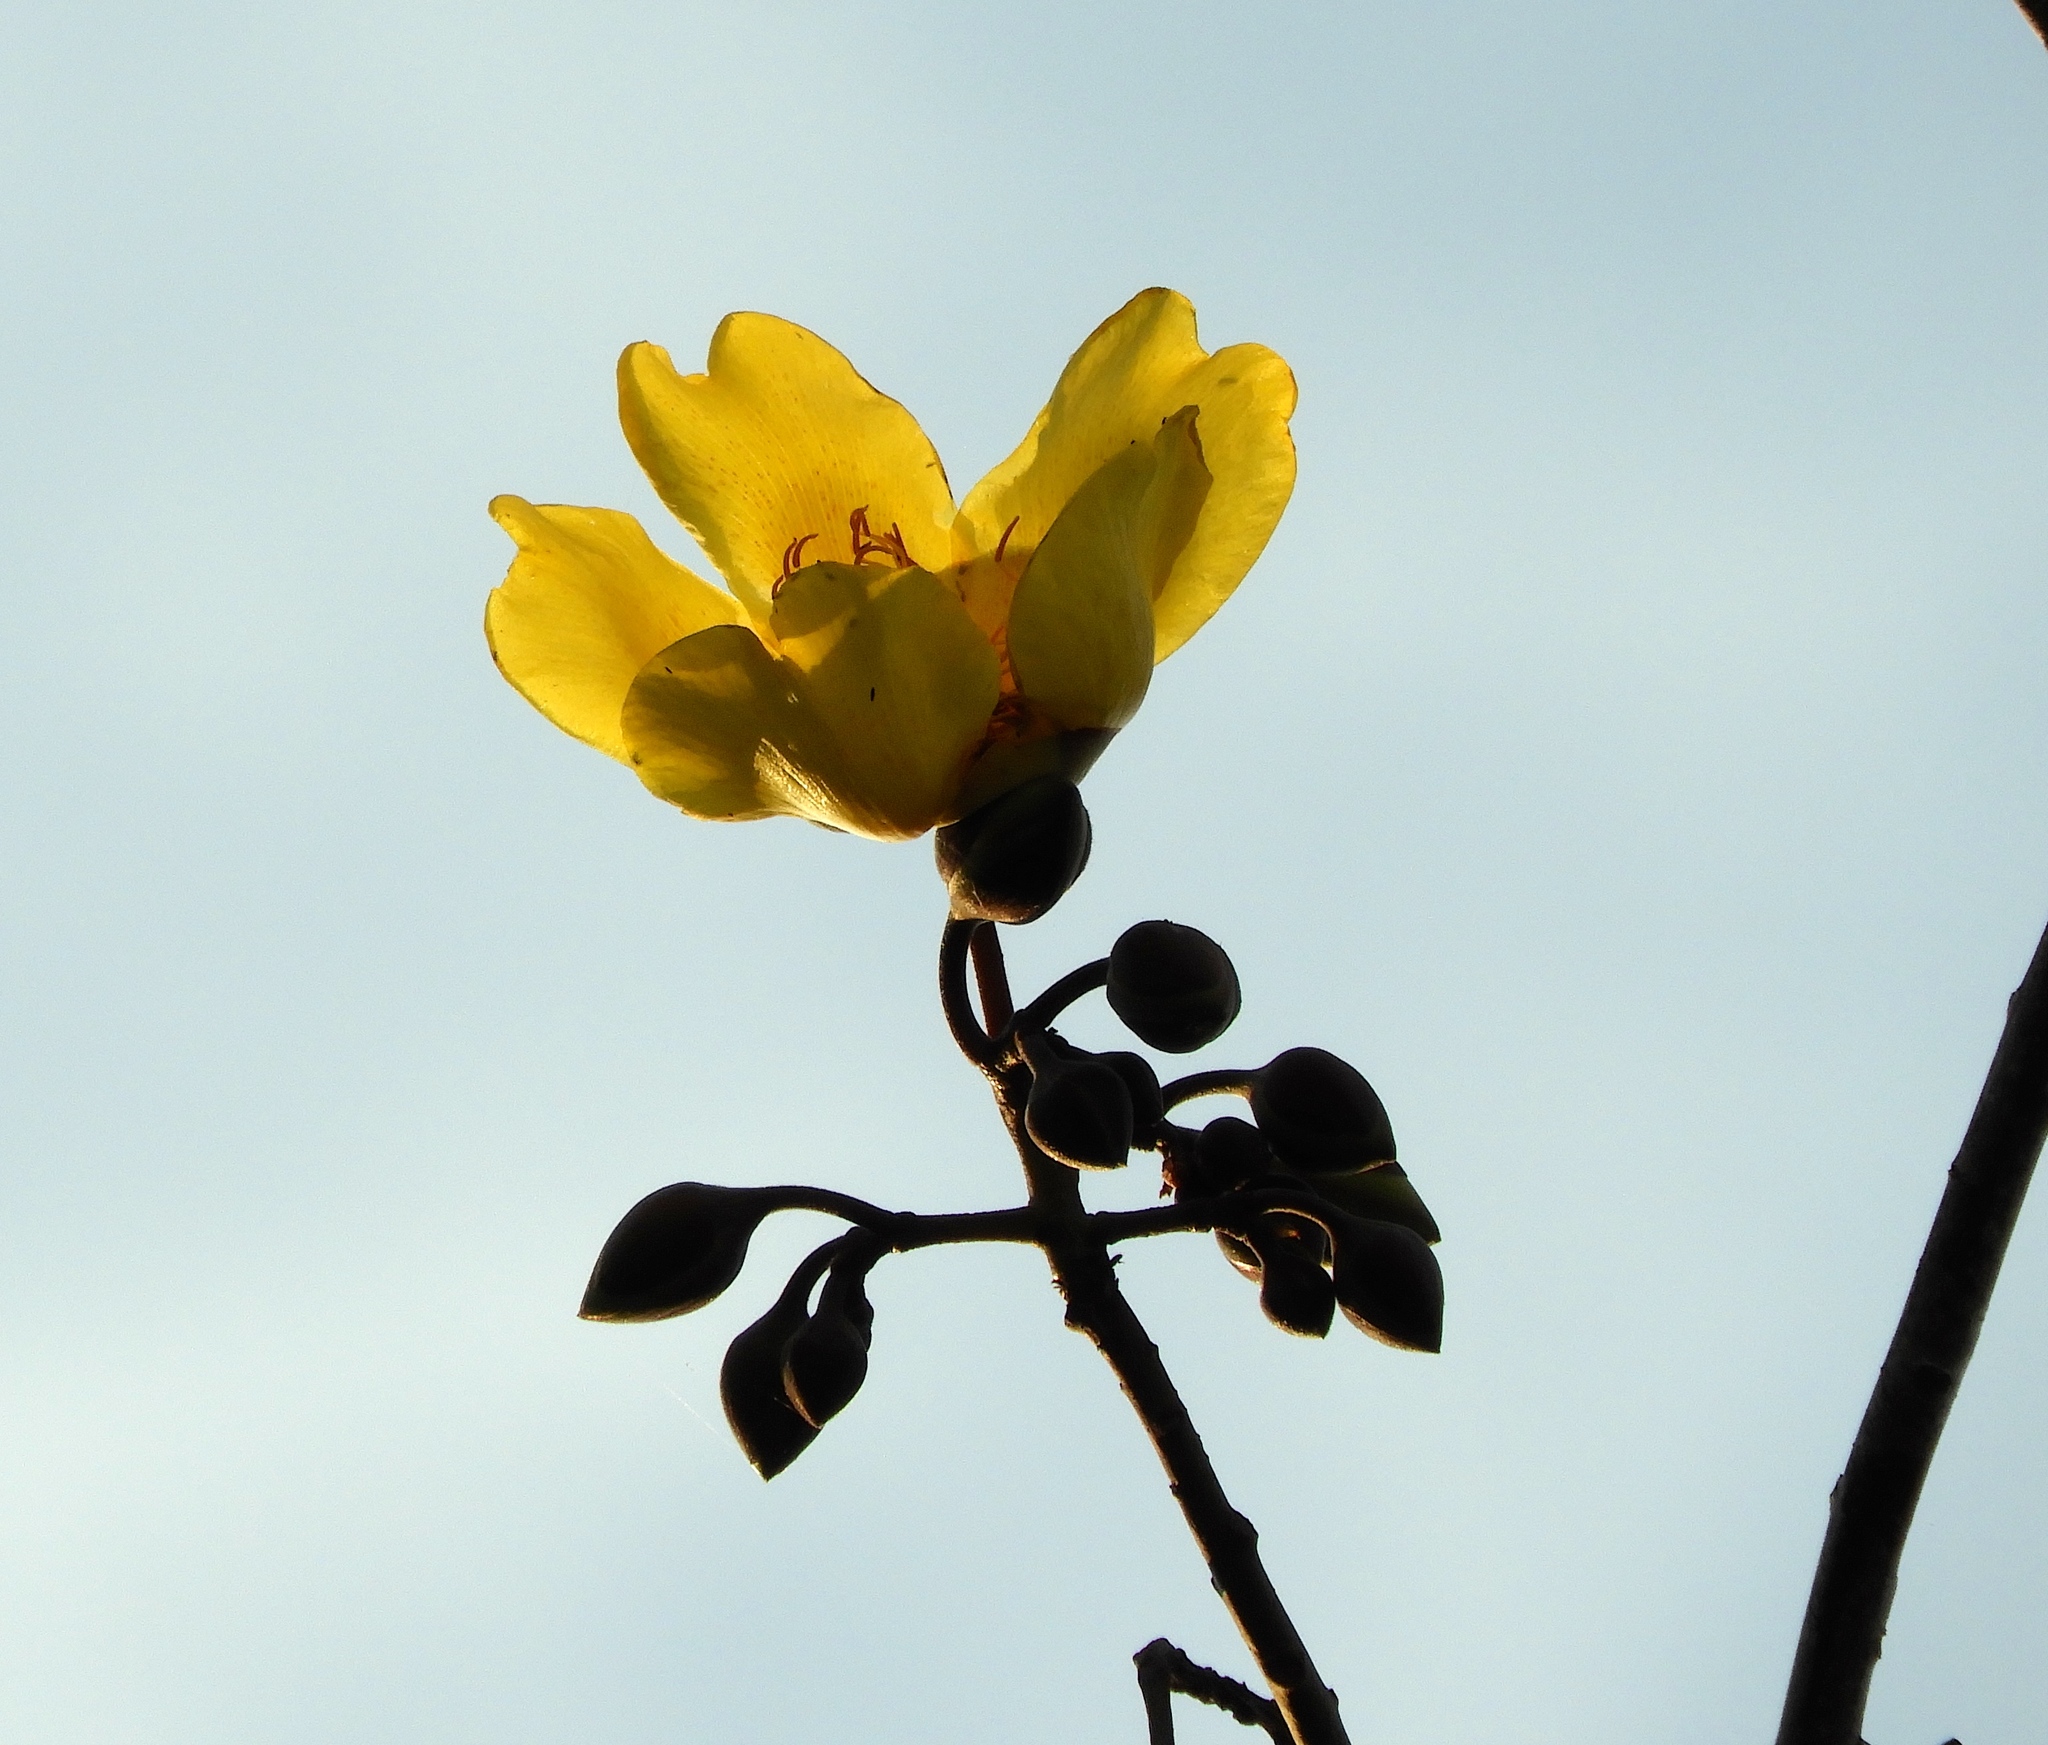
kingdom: Plantae
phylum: Tracheophyta
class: Magnoliopsida
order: Malvales
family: Cochlospermaceae
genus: Cochlospermum
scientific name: Cochlospermum vitifolium
